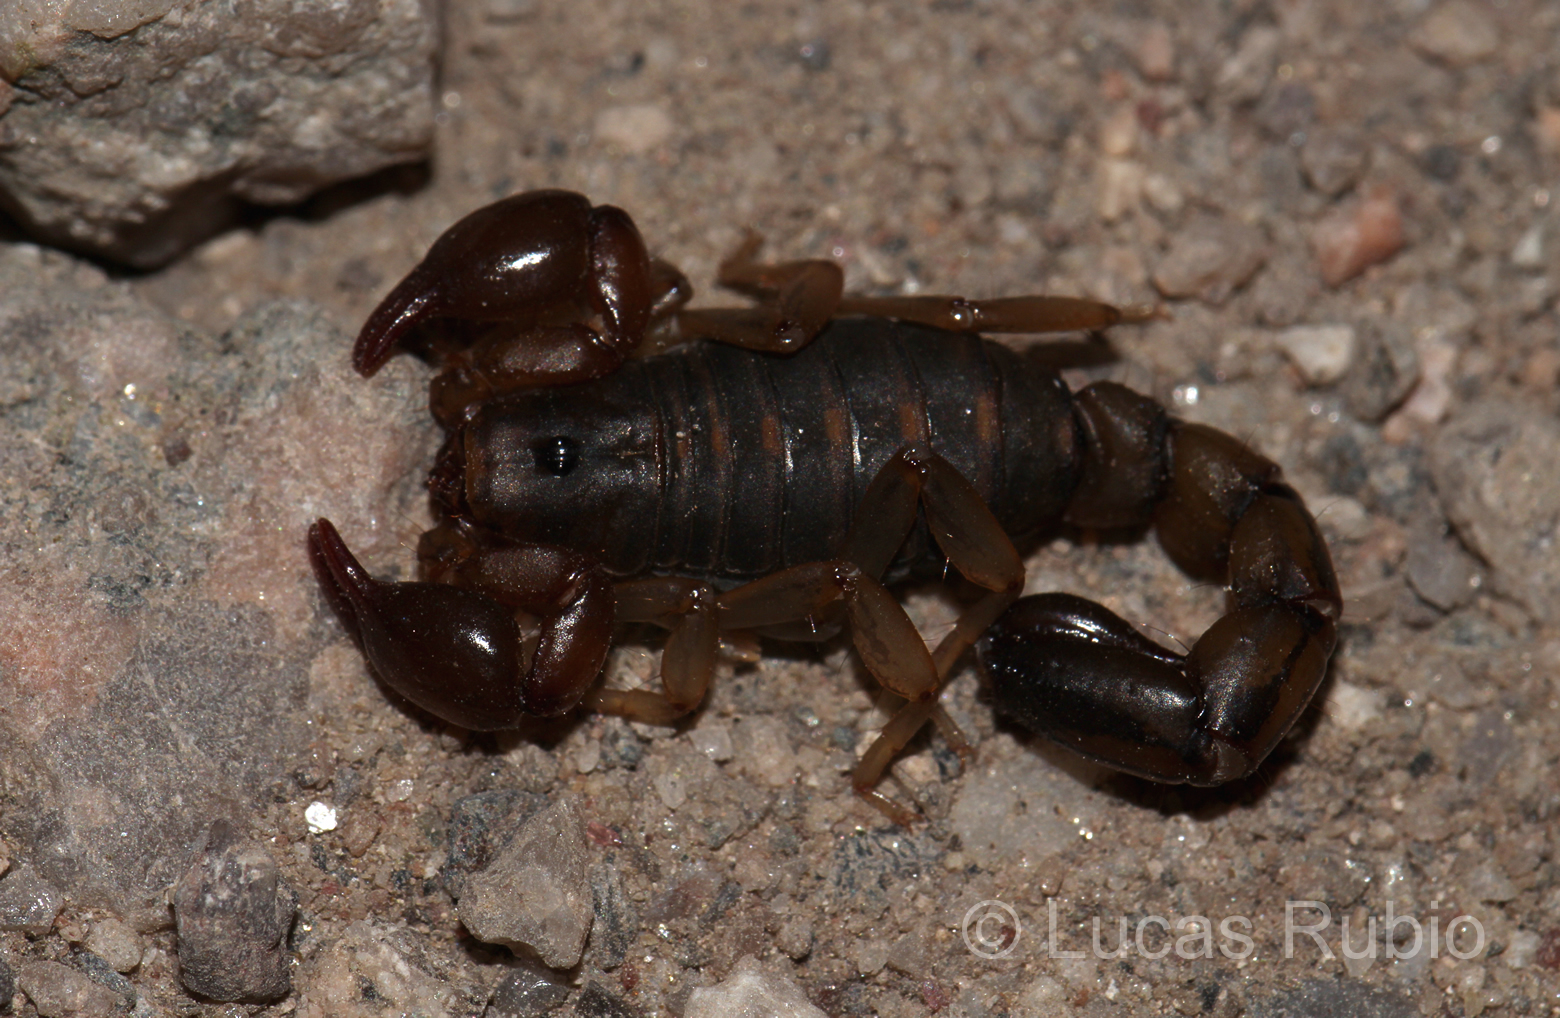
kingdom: Animalia
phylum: Arthropoda
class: Arachnida
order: Scorpiones
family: Bothriuridae
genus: Bothriurus
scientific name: Bothriurus cordubensis
